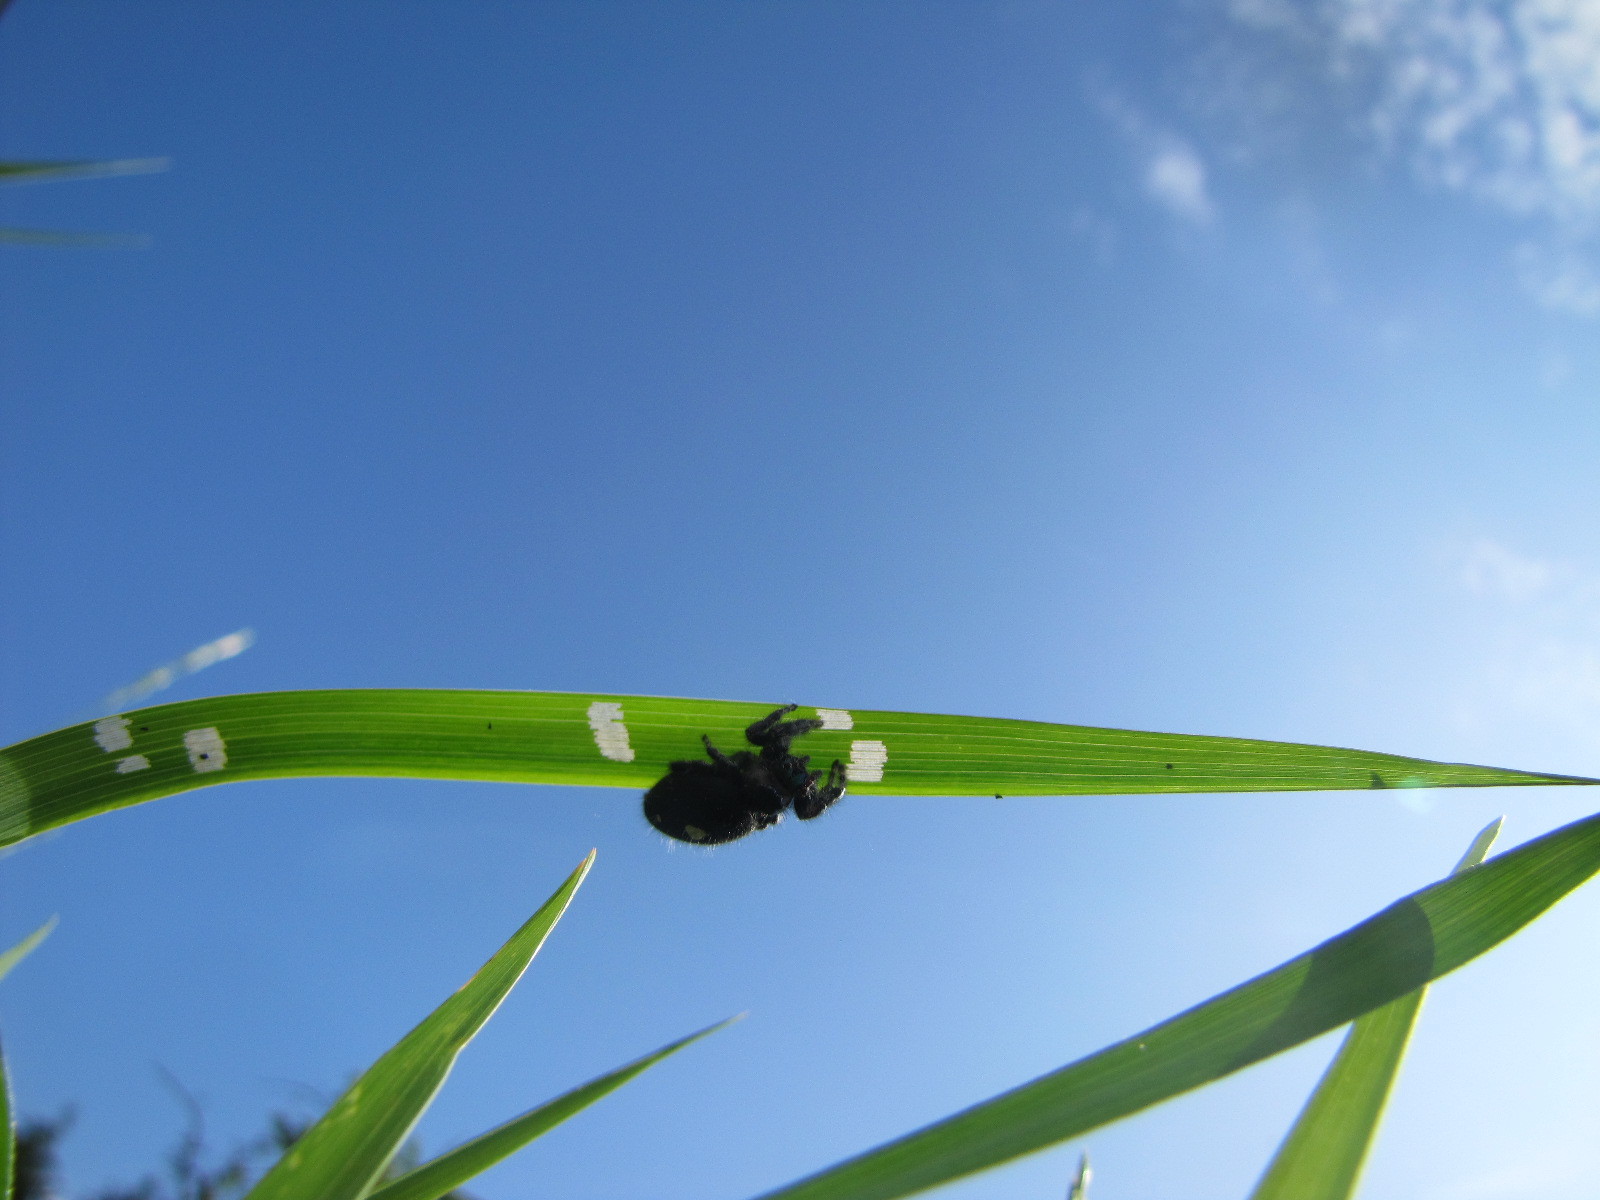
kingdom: Animalia
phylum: Arthropoda
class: Arachnida
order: Araneae
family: Salticidae
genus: Phidippus
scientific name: Phidippus audax
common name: Bold jumper
